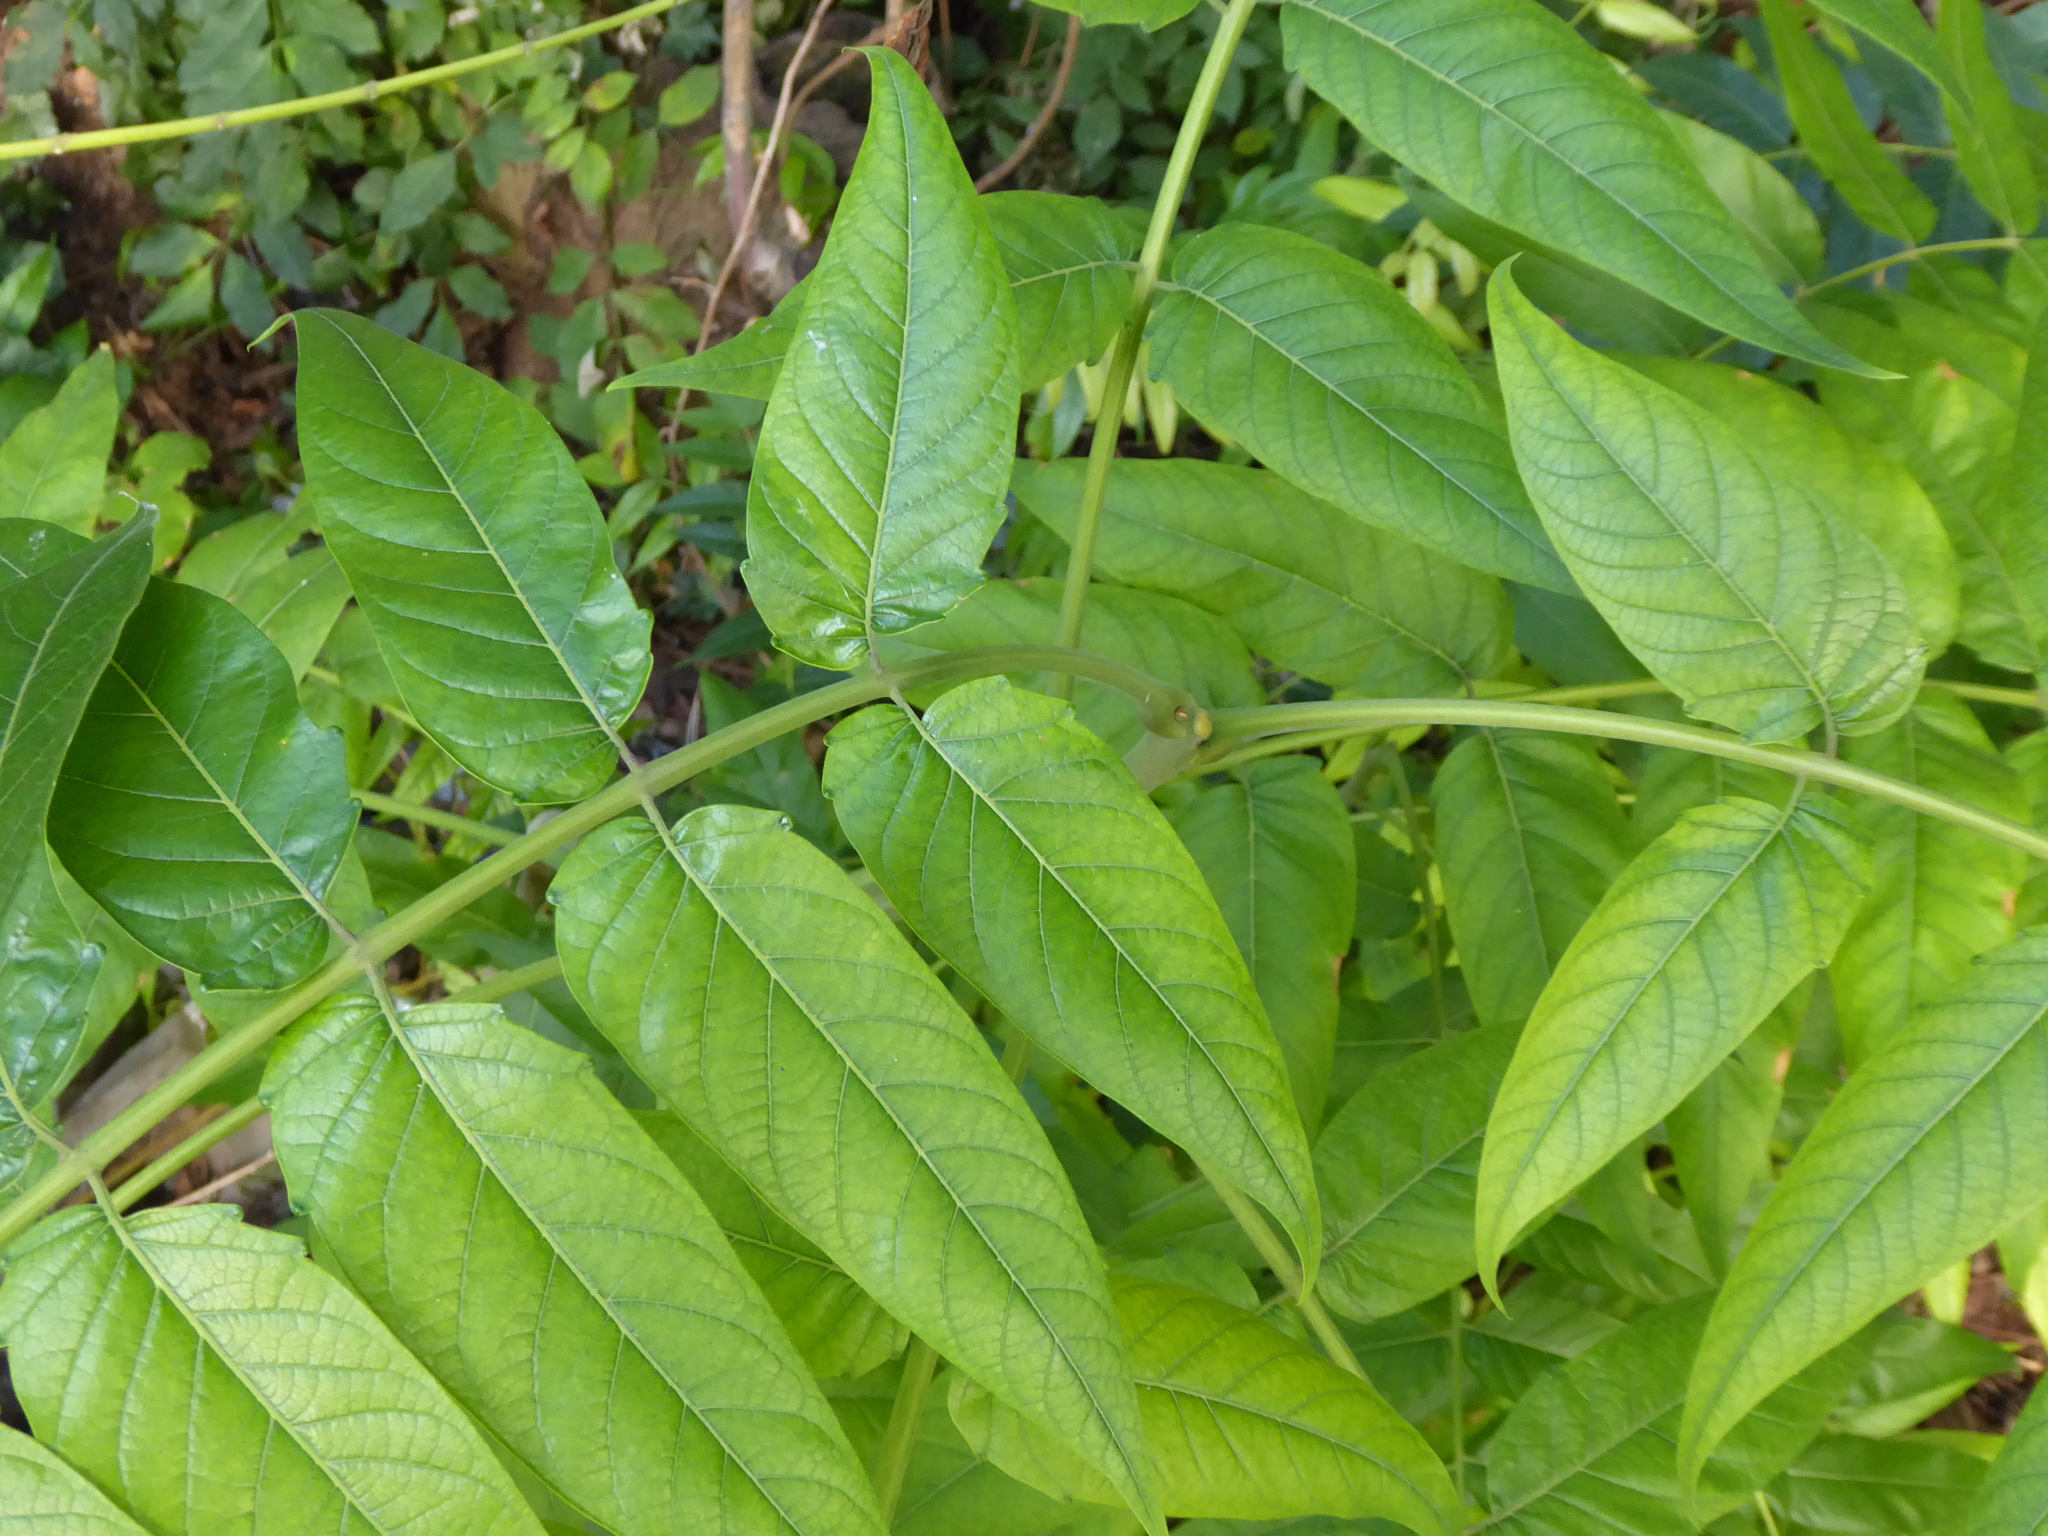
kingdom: Plantae
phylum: Tracheophyta
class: Magnoliopsida
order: Sapindales
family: Simaroubaceae
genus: Ailanthus
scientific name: Ailanthus altissima
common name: Tree-of-heaven
